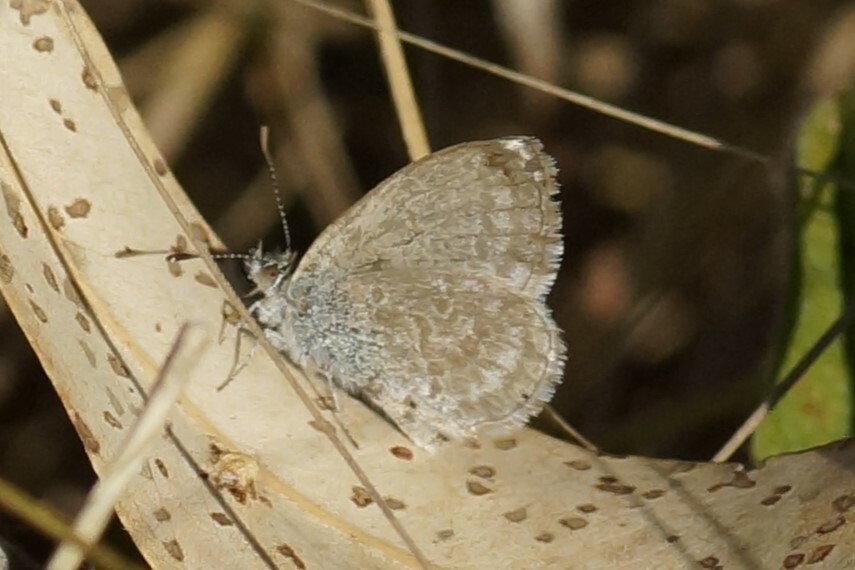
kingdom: Animalia
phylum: Arthropoda
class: Insecta
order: Lepidoptera
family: Lycaenidae
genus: Zizina
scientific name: Zizina otis
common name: Lesser grass blue
